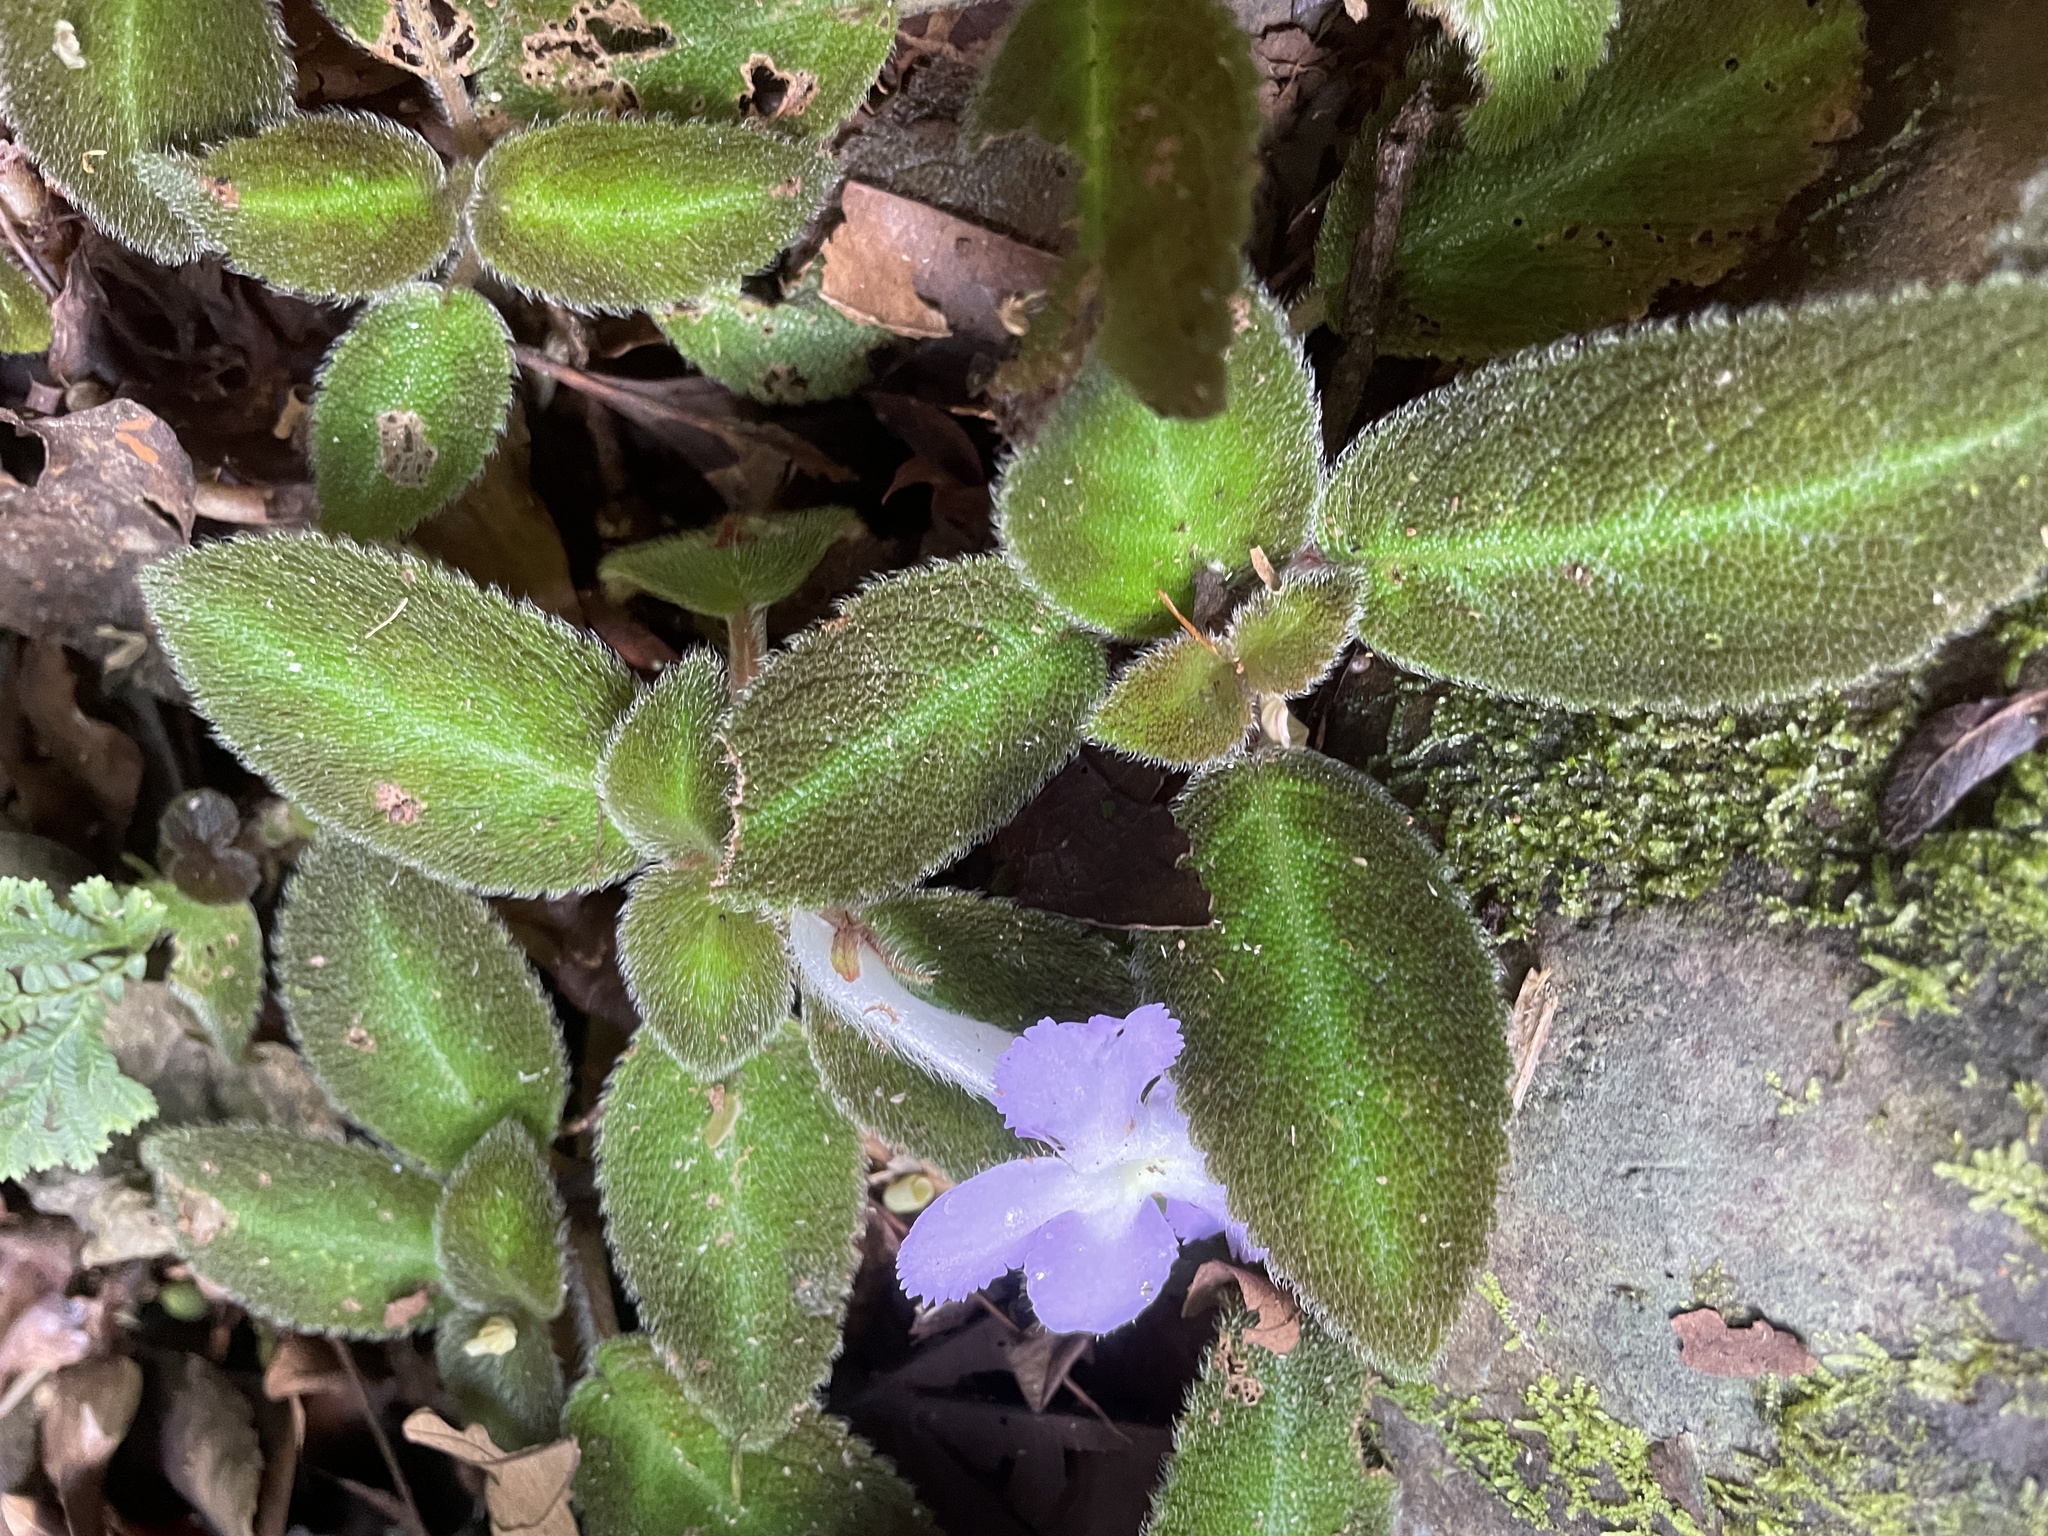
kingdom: Plantae
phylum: Tracheophyta
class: Magnoliopsida
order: Lamiales
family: Gesneriaceae
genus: Episcia
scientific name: Episcia lilacina
